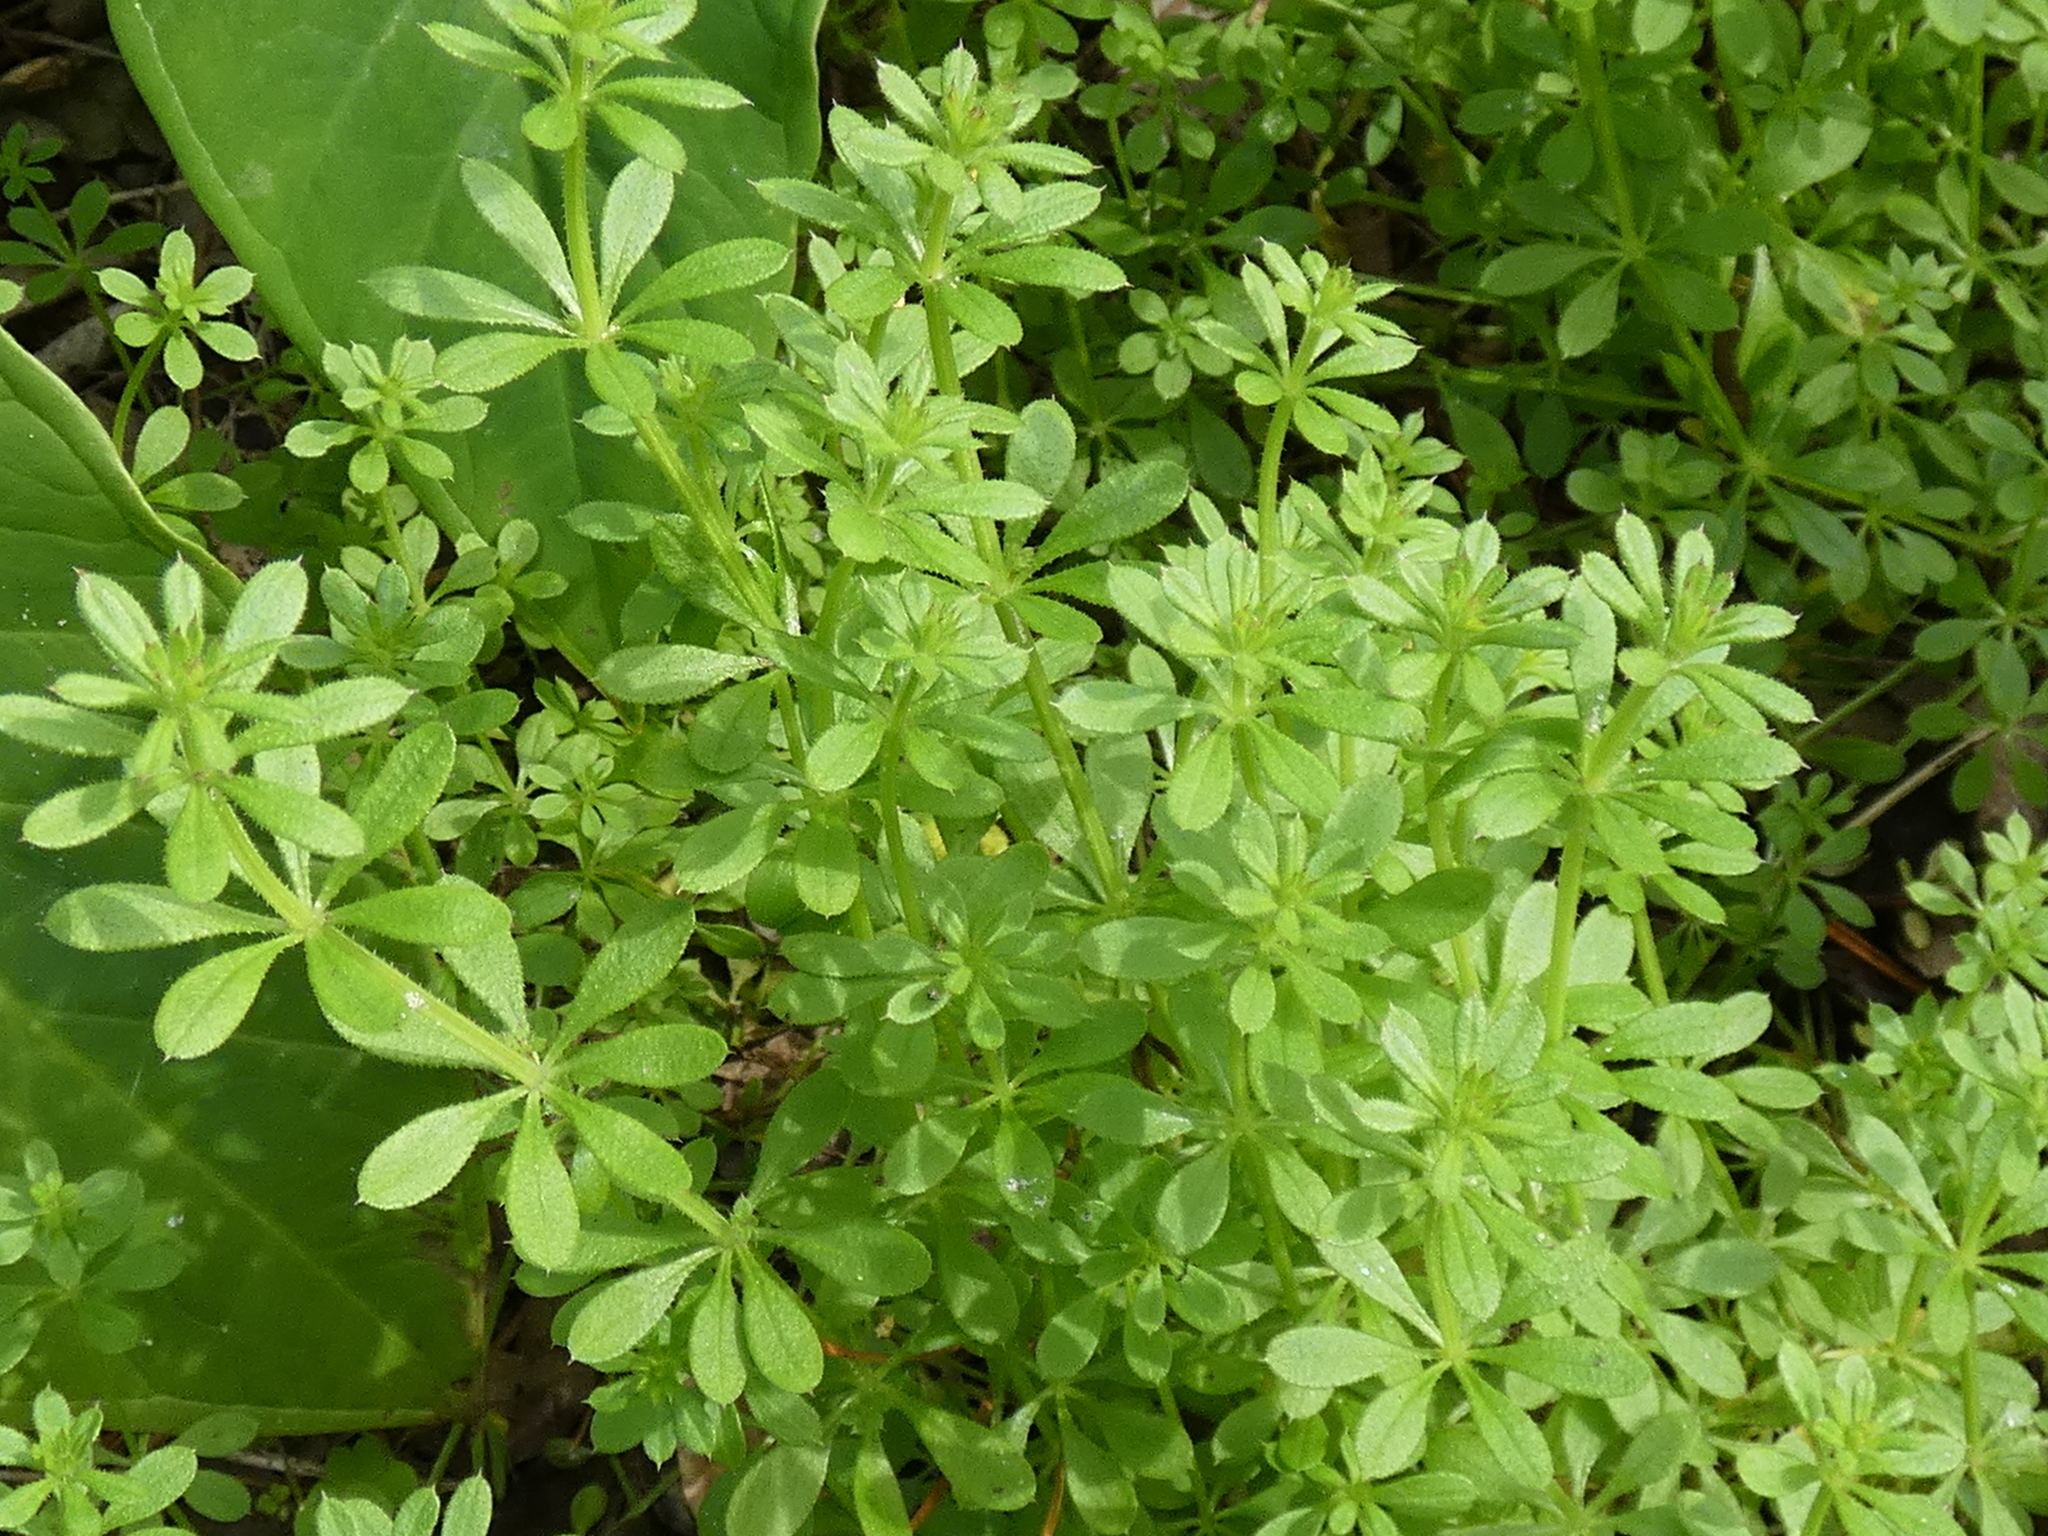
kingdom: Plantae
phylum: Tracheophyta
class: Magnoliopsida
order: Gentianales
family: Rubiaceae
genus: Galium
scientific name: Galium aparine
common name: Cleavers
